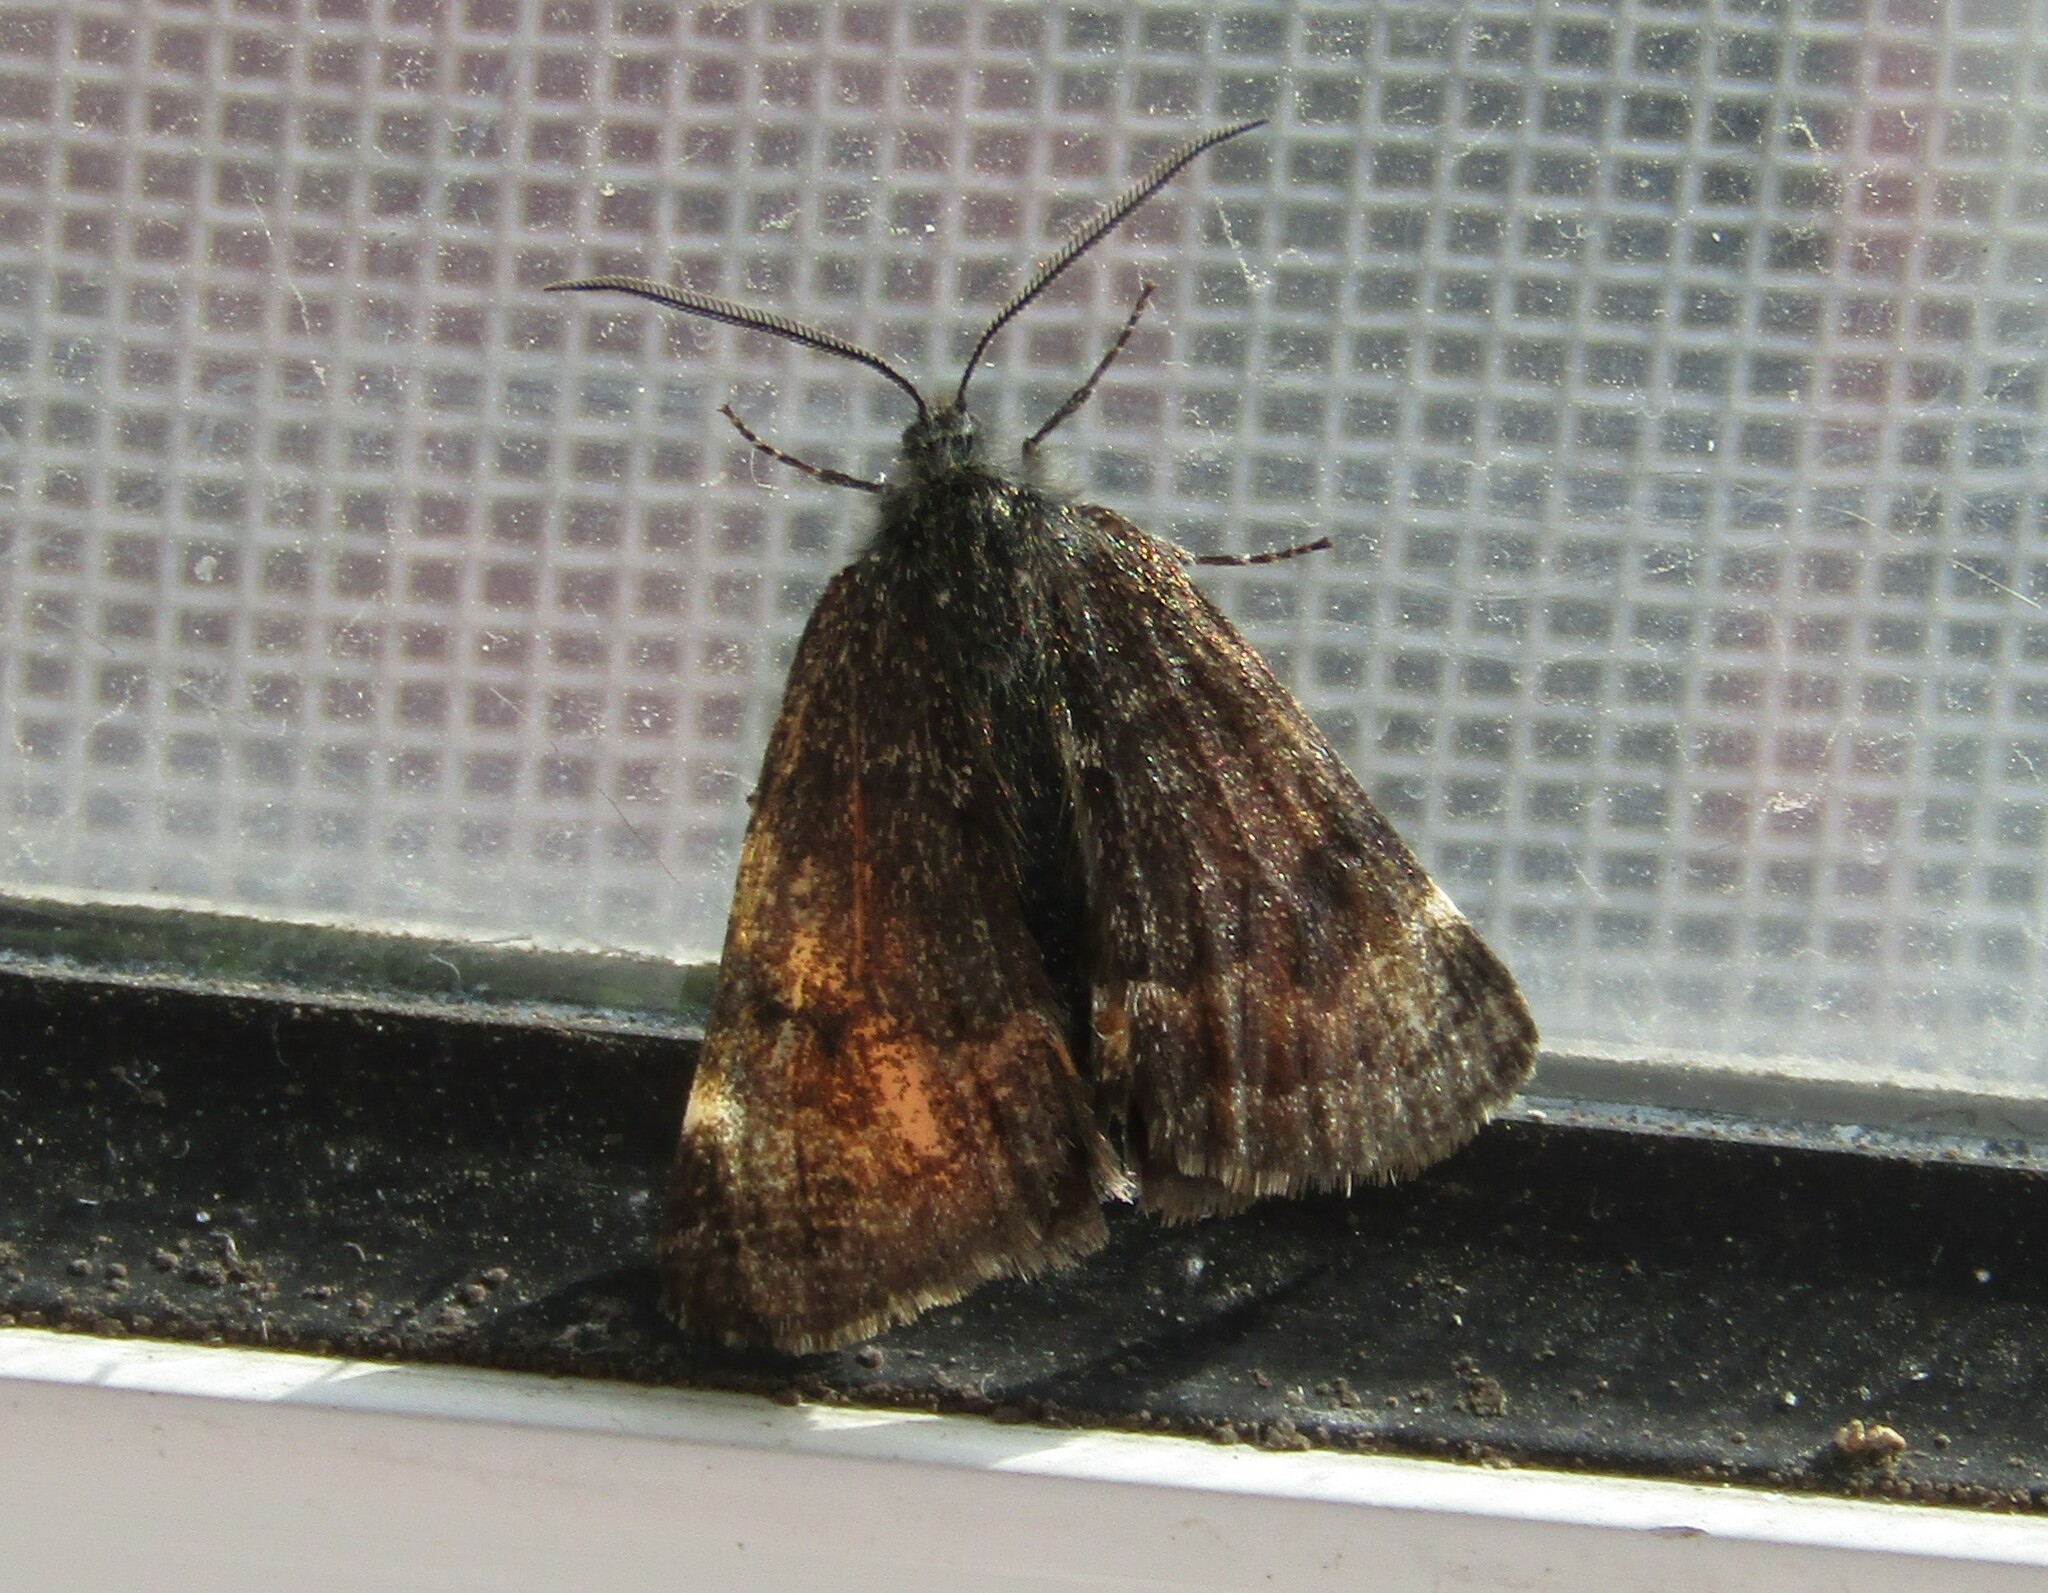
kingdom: Animalia
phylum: Arthropoda
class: Insecta
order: Lepidoptera
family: Geometridae
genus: Archiearis
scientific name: Archiearis notha
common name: Light orange underwing
